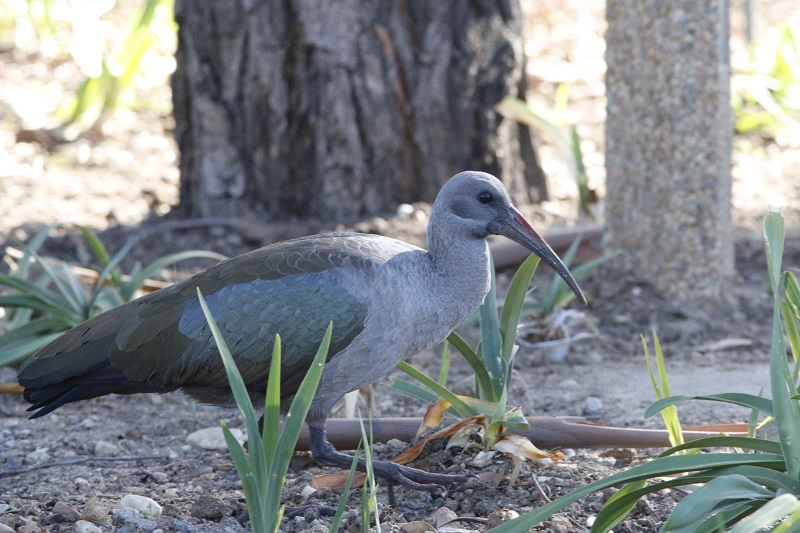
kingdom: Animalia
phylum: Chordata
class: Aves
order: Pelecaniformes
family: Threskiornithidae
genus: Bostrychia
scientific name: Bostrychia hagedash
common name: Hadada ibis
